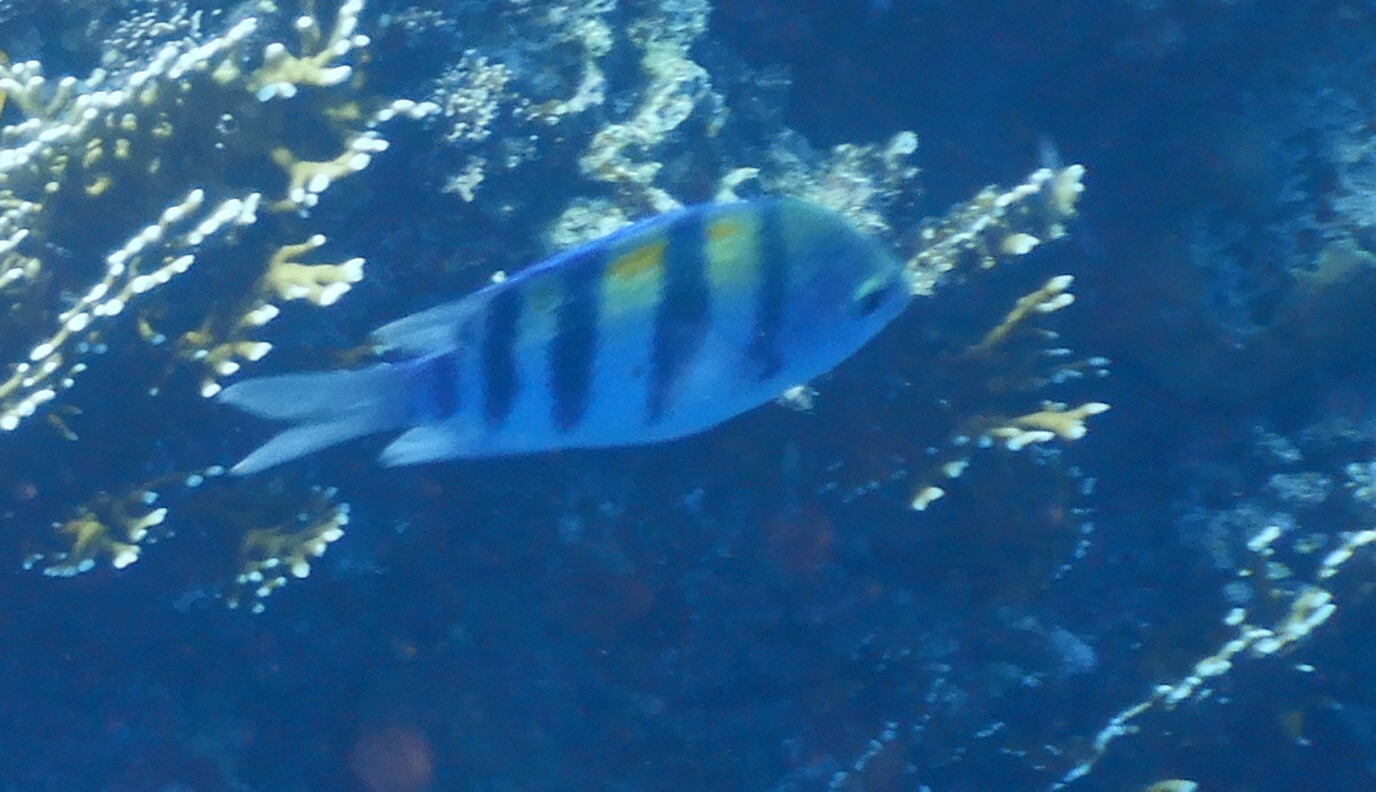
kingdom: Animalia
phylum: Chordata
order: Perciformes
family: Pomacentridae
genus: Abudefduf
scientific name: Abudefduf vaigiensis
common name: Indo-pacific sergeant
